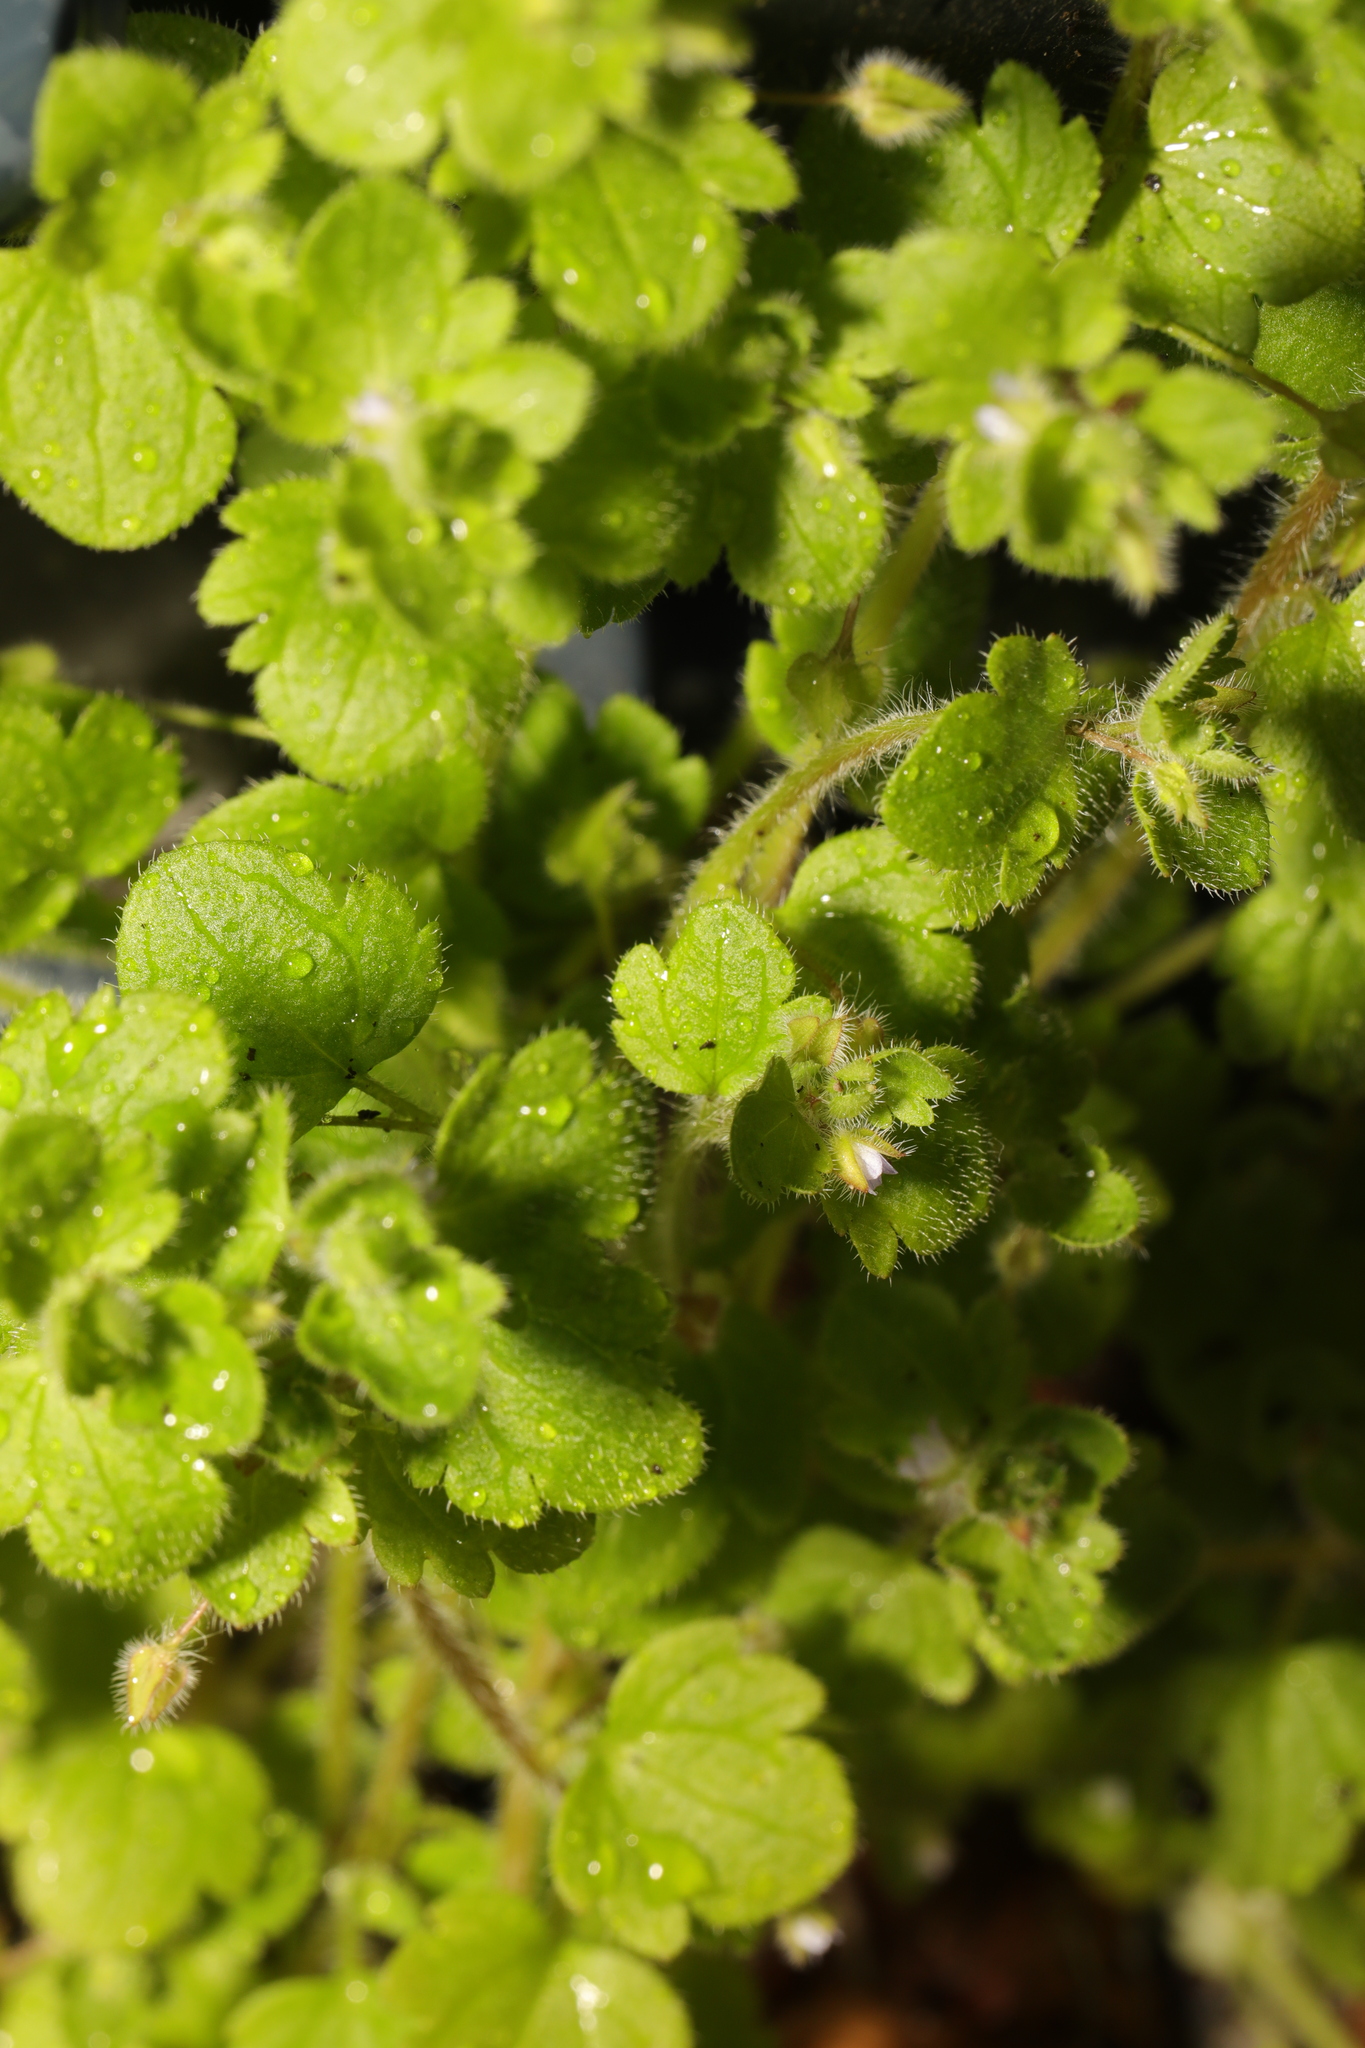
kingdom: Plantae
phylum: Tracheophyta
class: Magnoliopsida
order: Lamiales
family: Plantaginaceae
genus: Veronica
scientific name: Veronica sublobata
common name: False ivy-leaved speedwell
